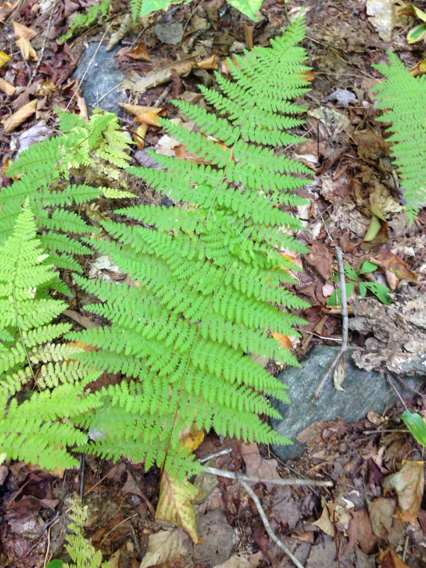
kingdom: Plantae
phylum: Tracheophyta
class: Polypodiopsida
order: Polypodiales
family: Dennstaedtiaceae
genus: Sitobolium
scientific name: Sitobolium punctilobum
